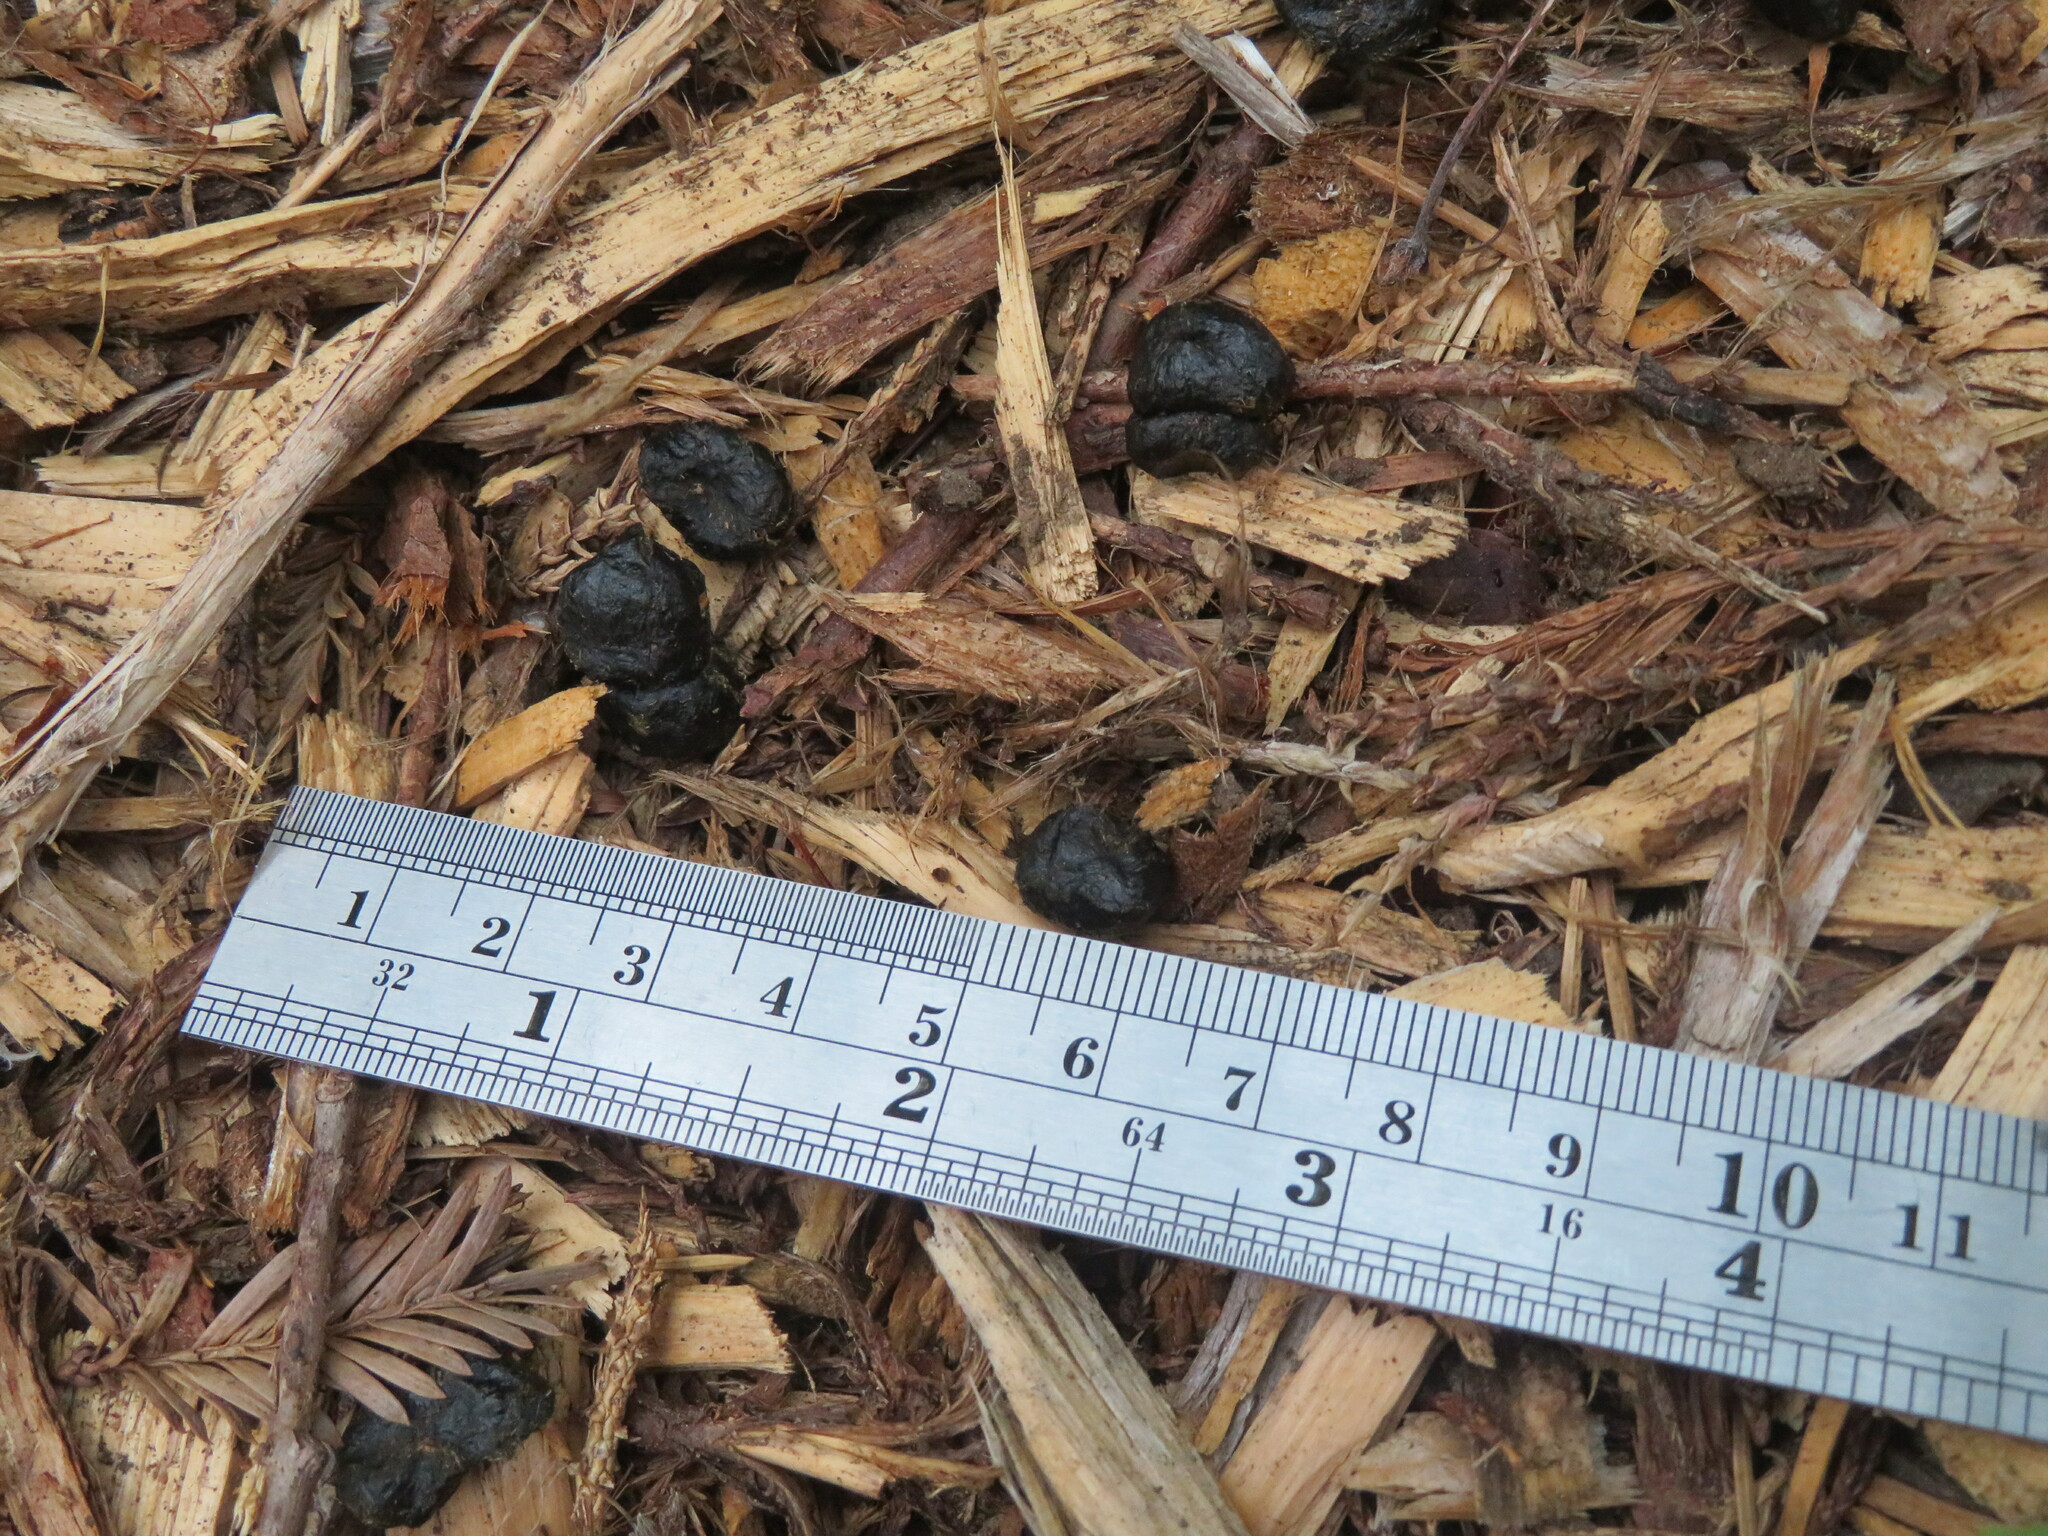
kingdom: Animalia
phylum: Chordata
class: Mammalia
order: Artiodactyla
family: Cervidae
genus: Odocoileus
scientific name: Odocoileus hemionus
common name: Mule deer
